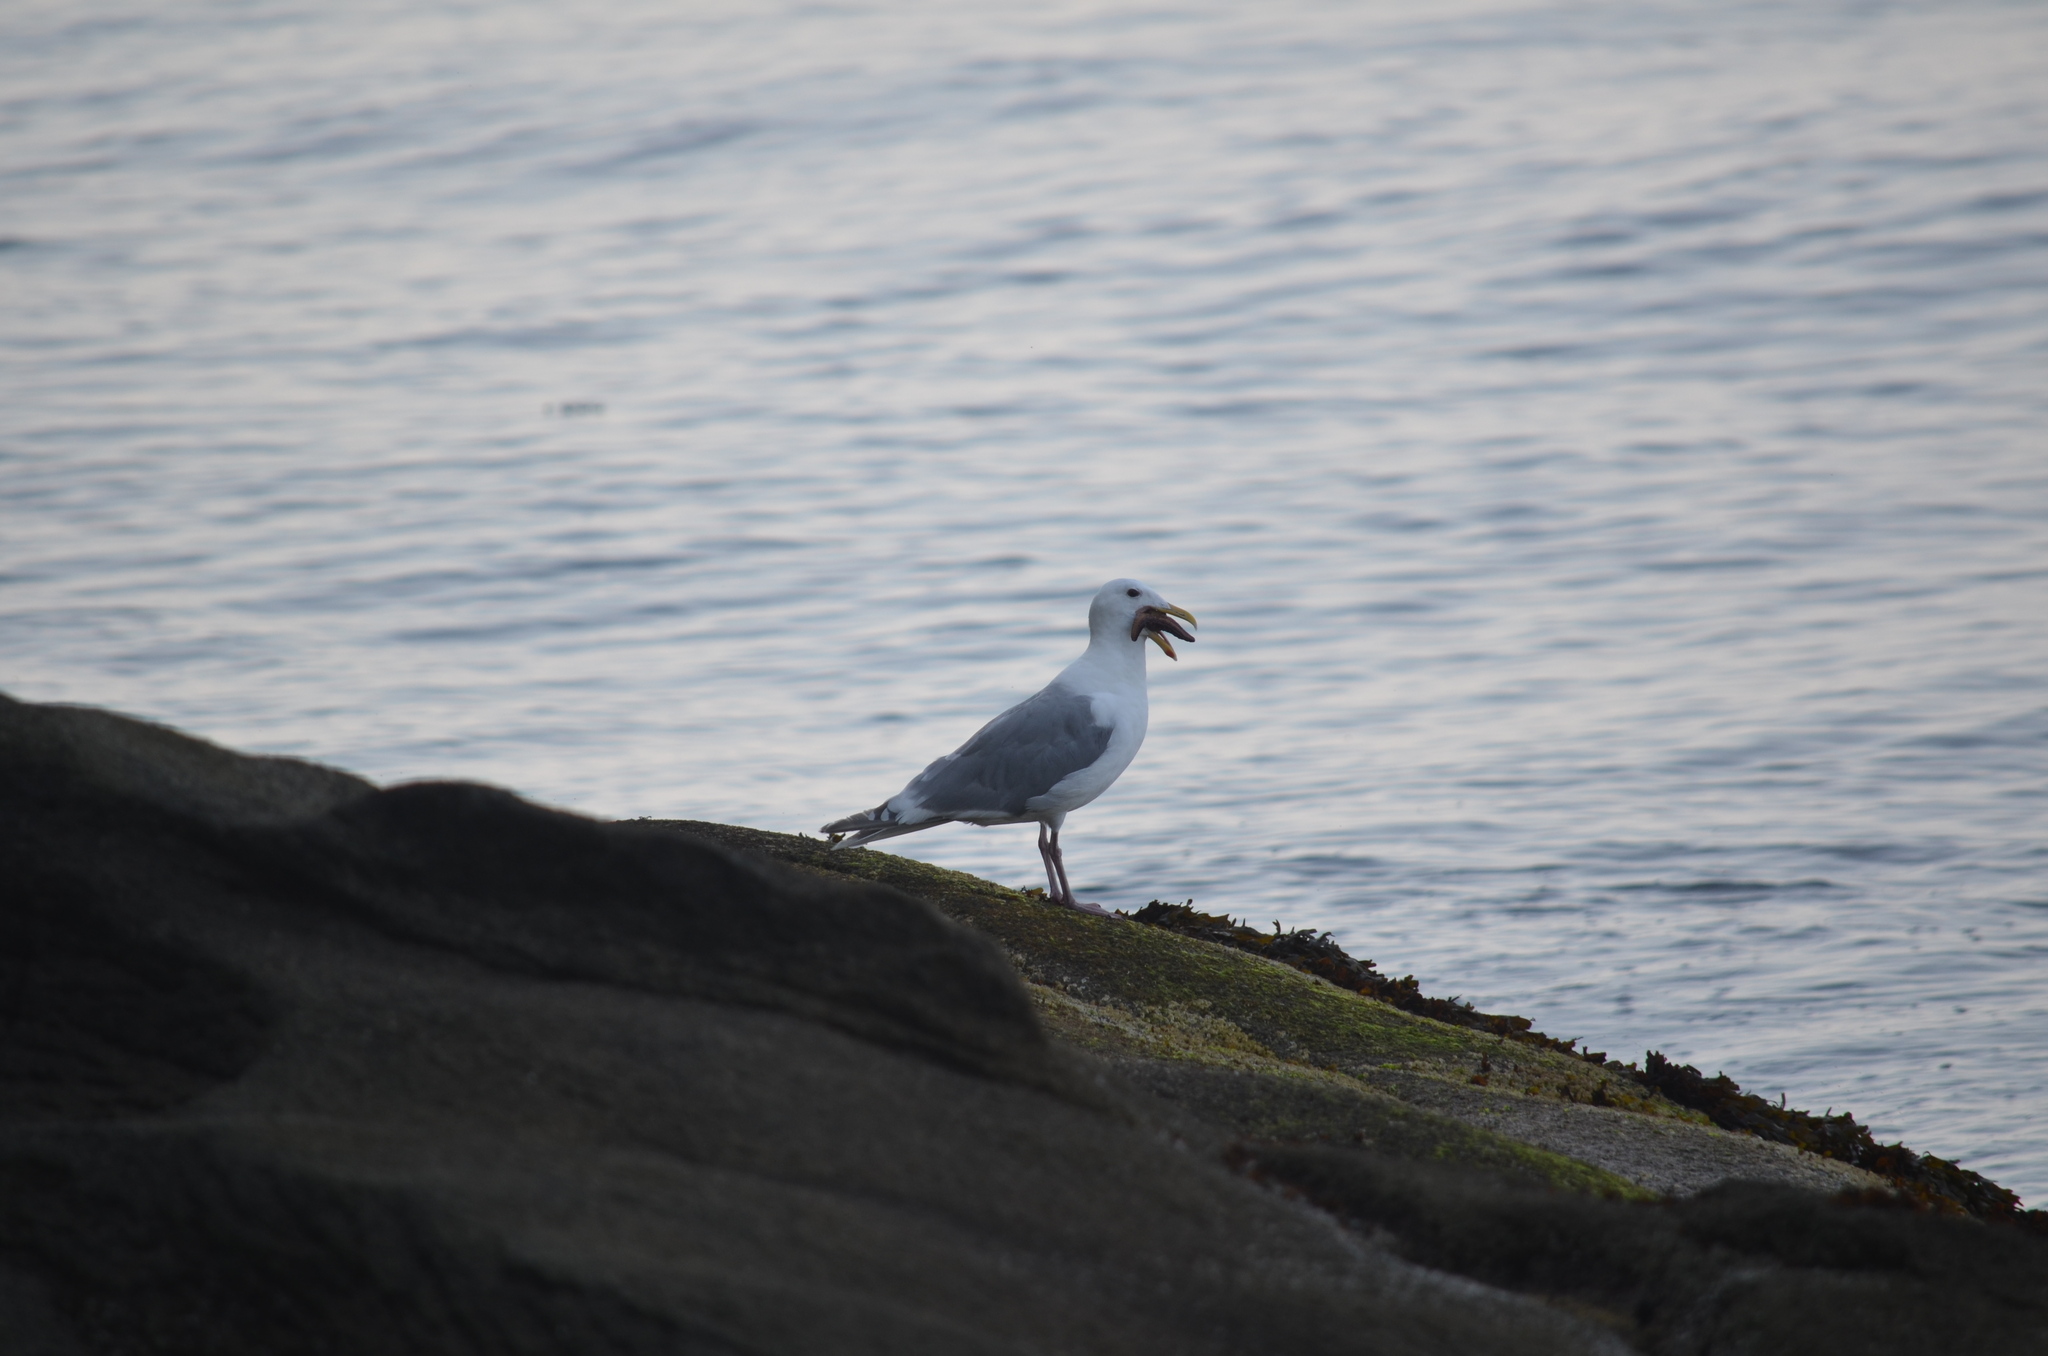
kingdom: Animalia
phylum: Echinodermata
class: Asteroidea
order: Forcipulatida
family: Asteriidae
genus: Pisaster
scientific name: Pisaster ochraceus
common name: Ochre stars
